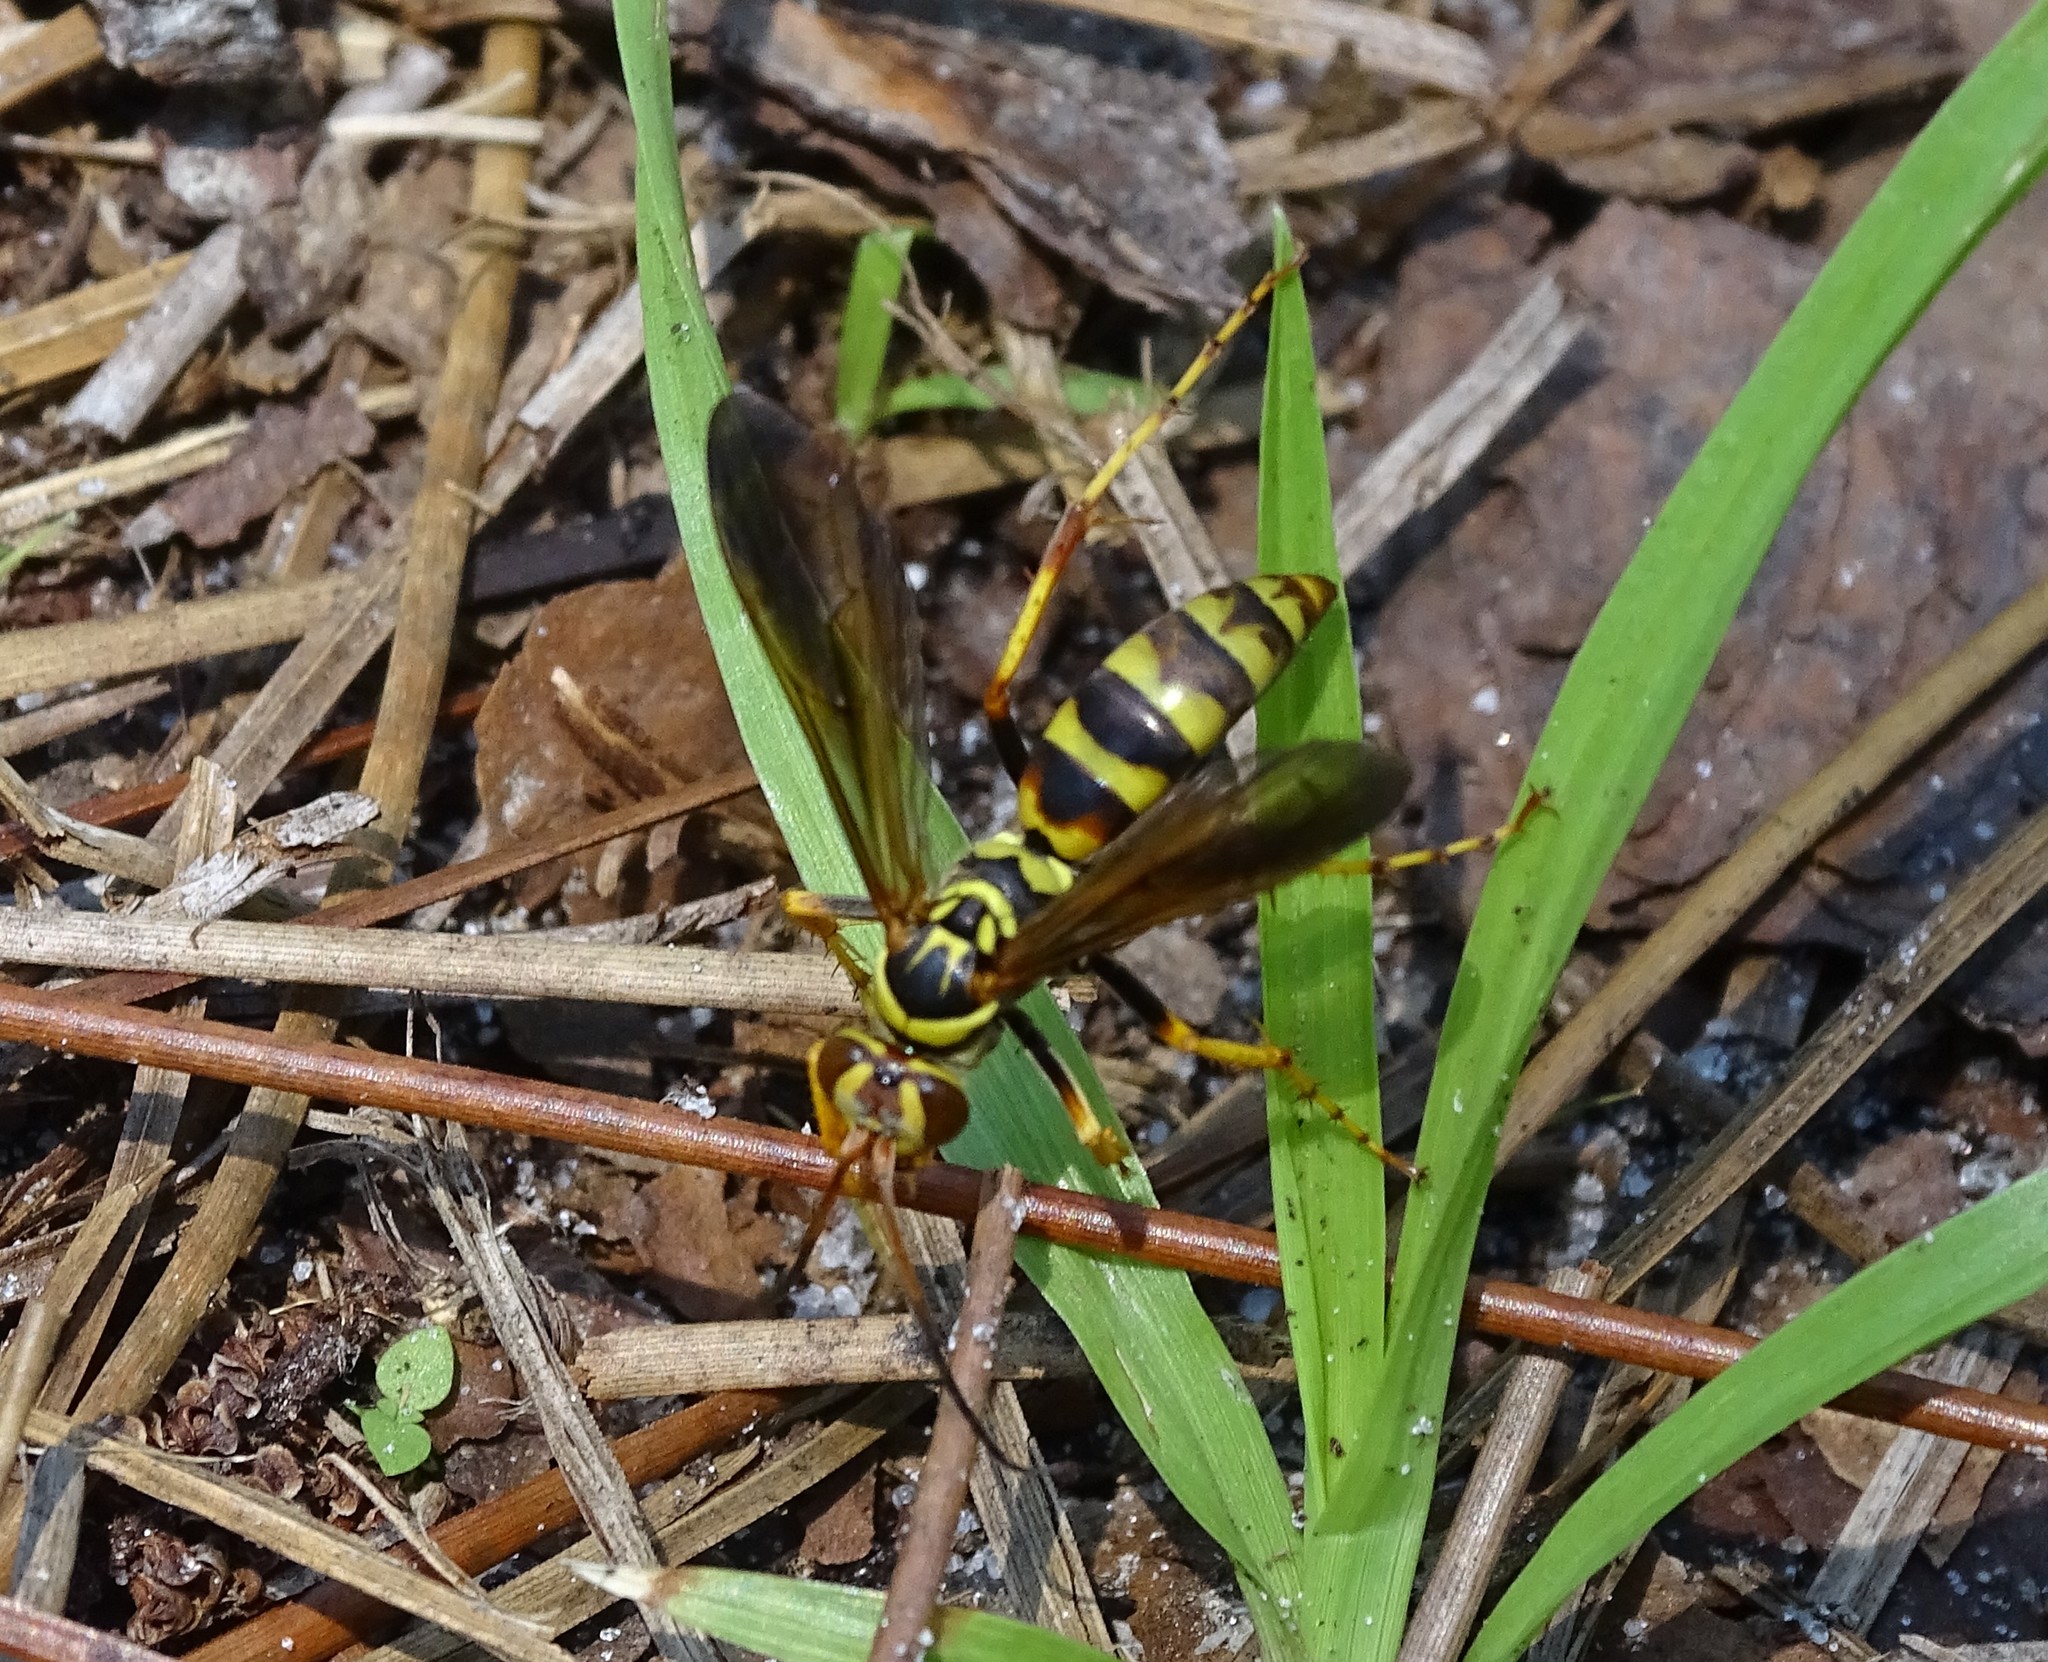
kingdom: Animalia
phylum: Arthropoda
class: Insecta
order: Hymenoptera
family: Pompilidae
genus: Poecilopompilus
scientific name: Poecilopompilus interruptus
